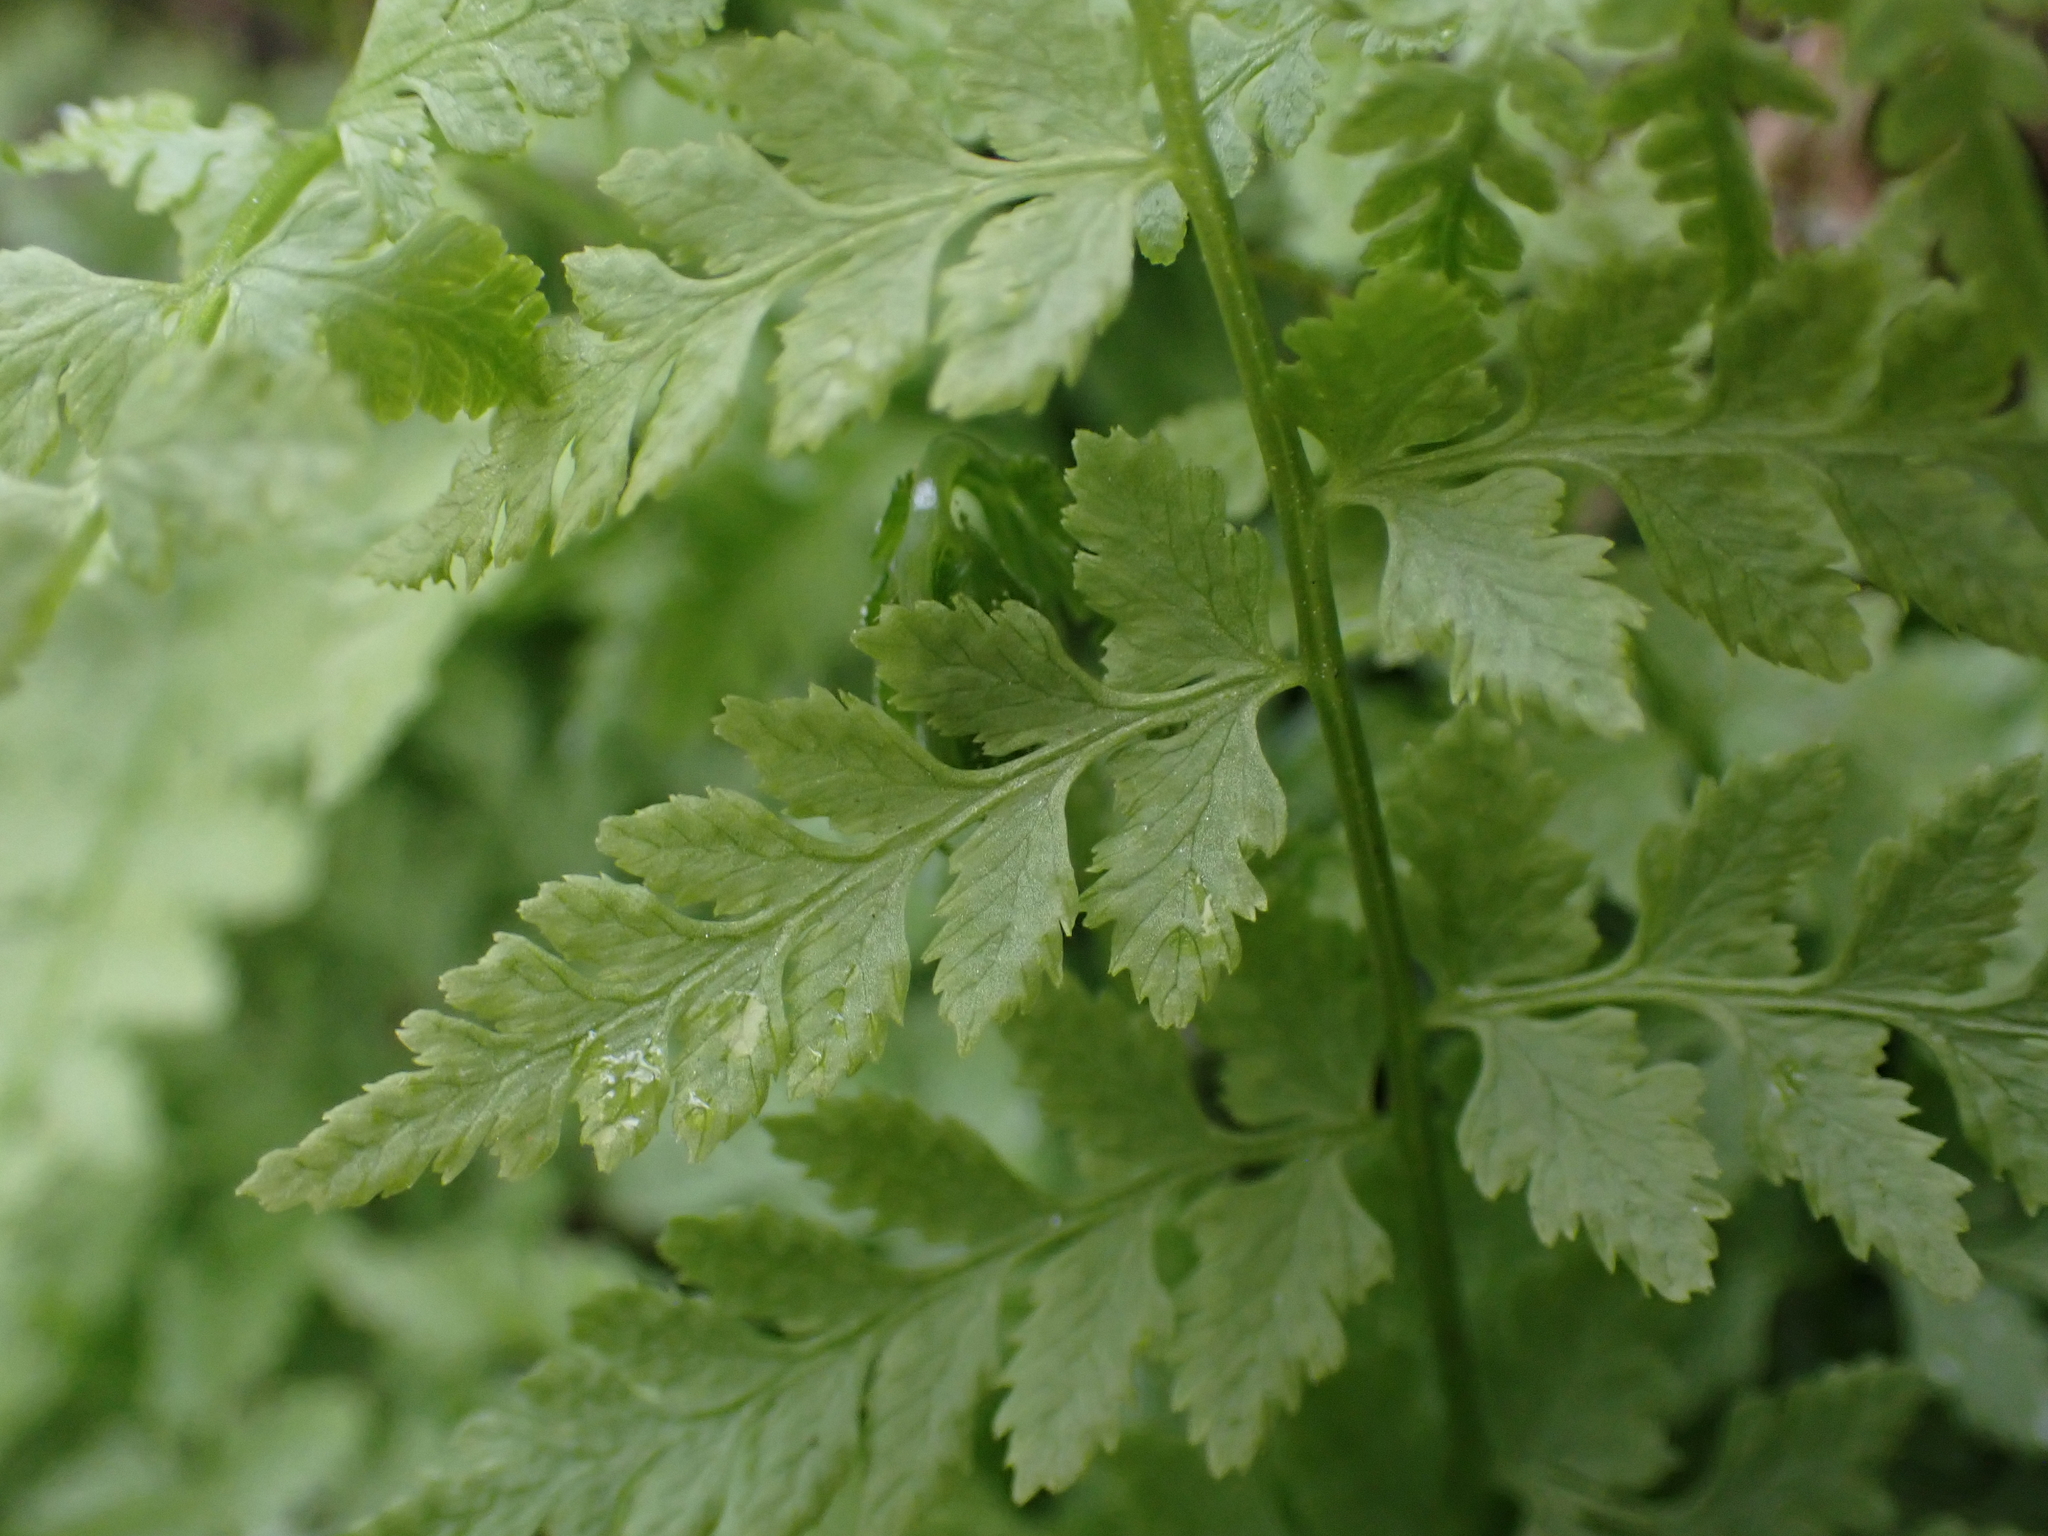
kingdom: Plantae
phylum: Tracheophyta
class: Polypodiopsida
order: Polypodiales
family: Cystopteridaceae
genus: Cystopteris
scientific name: Cystopteris fragilis
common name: Brittle bladder fern
